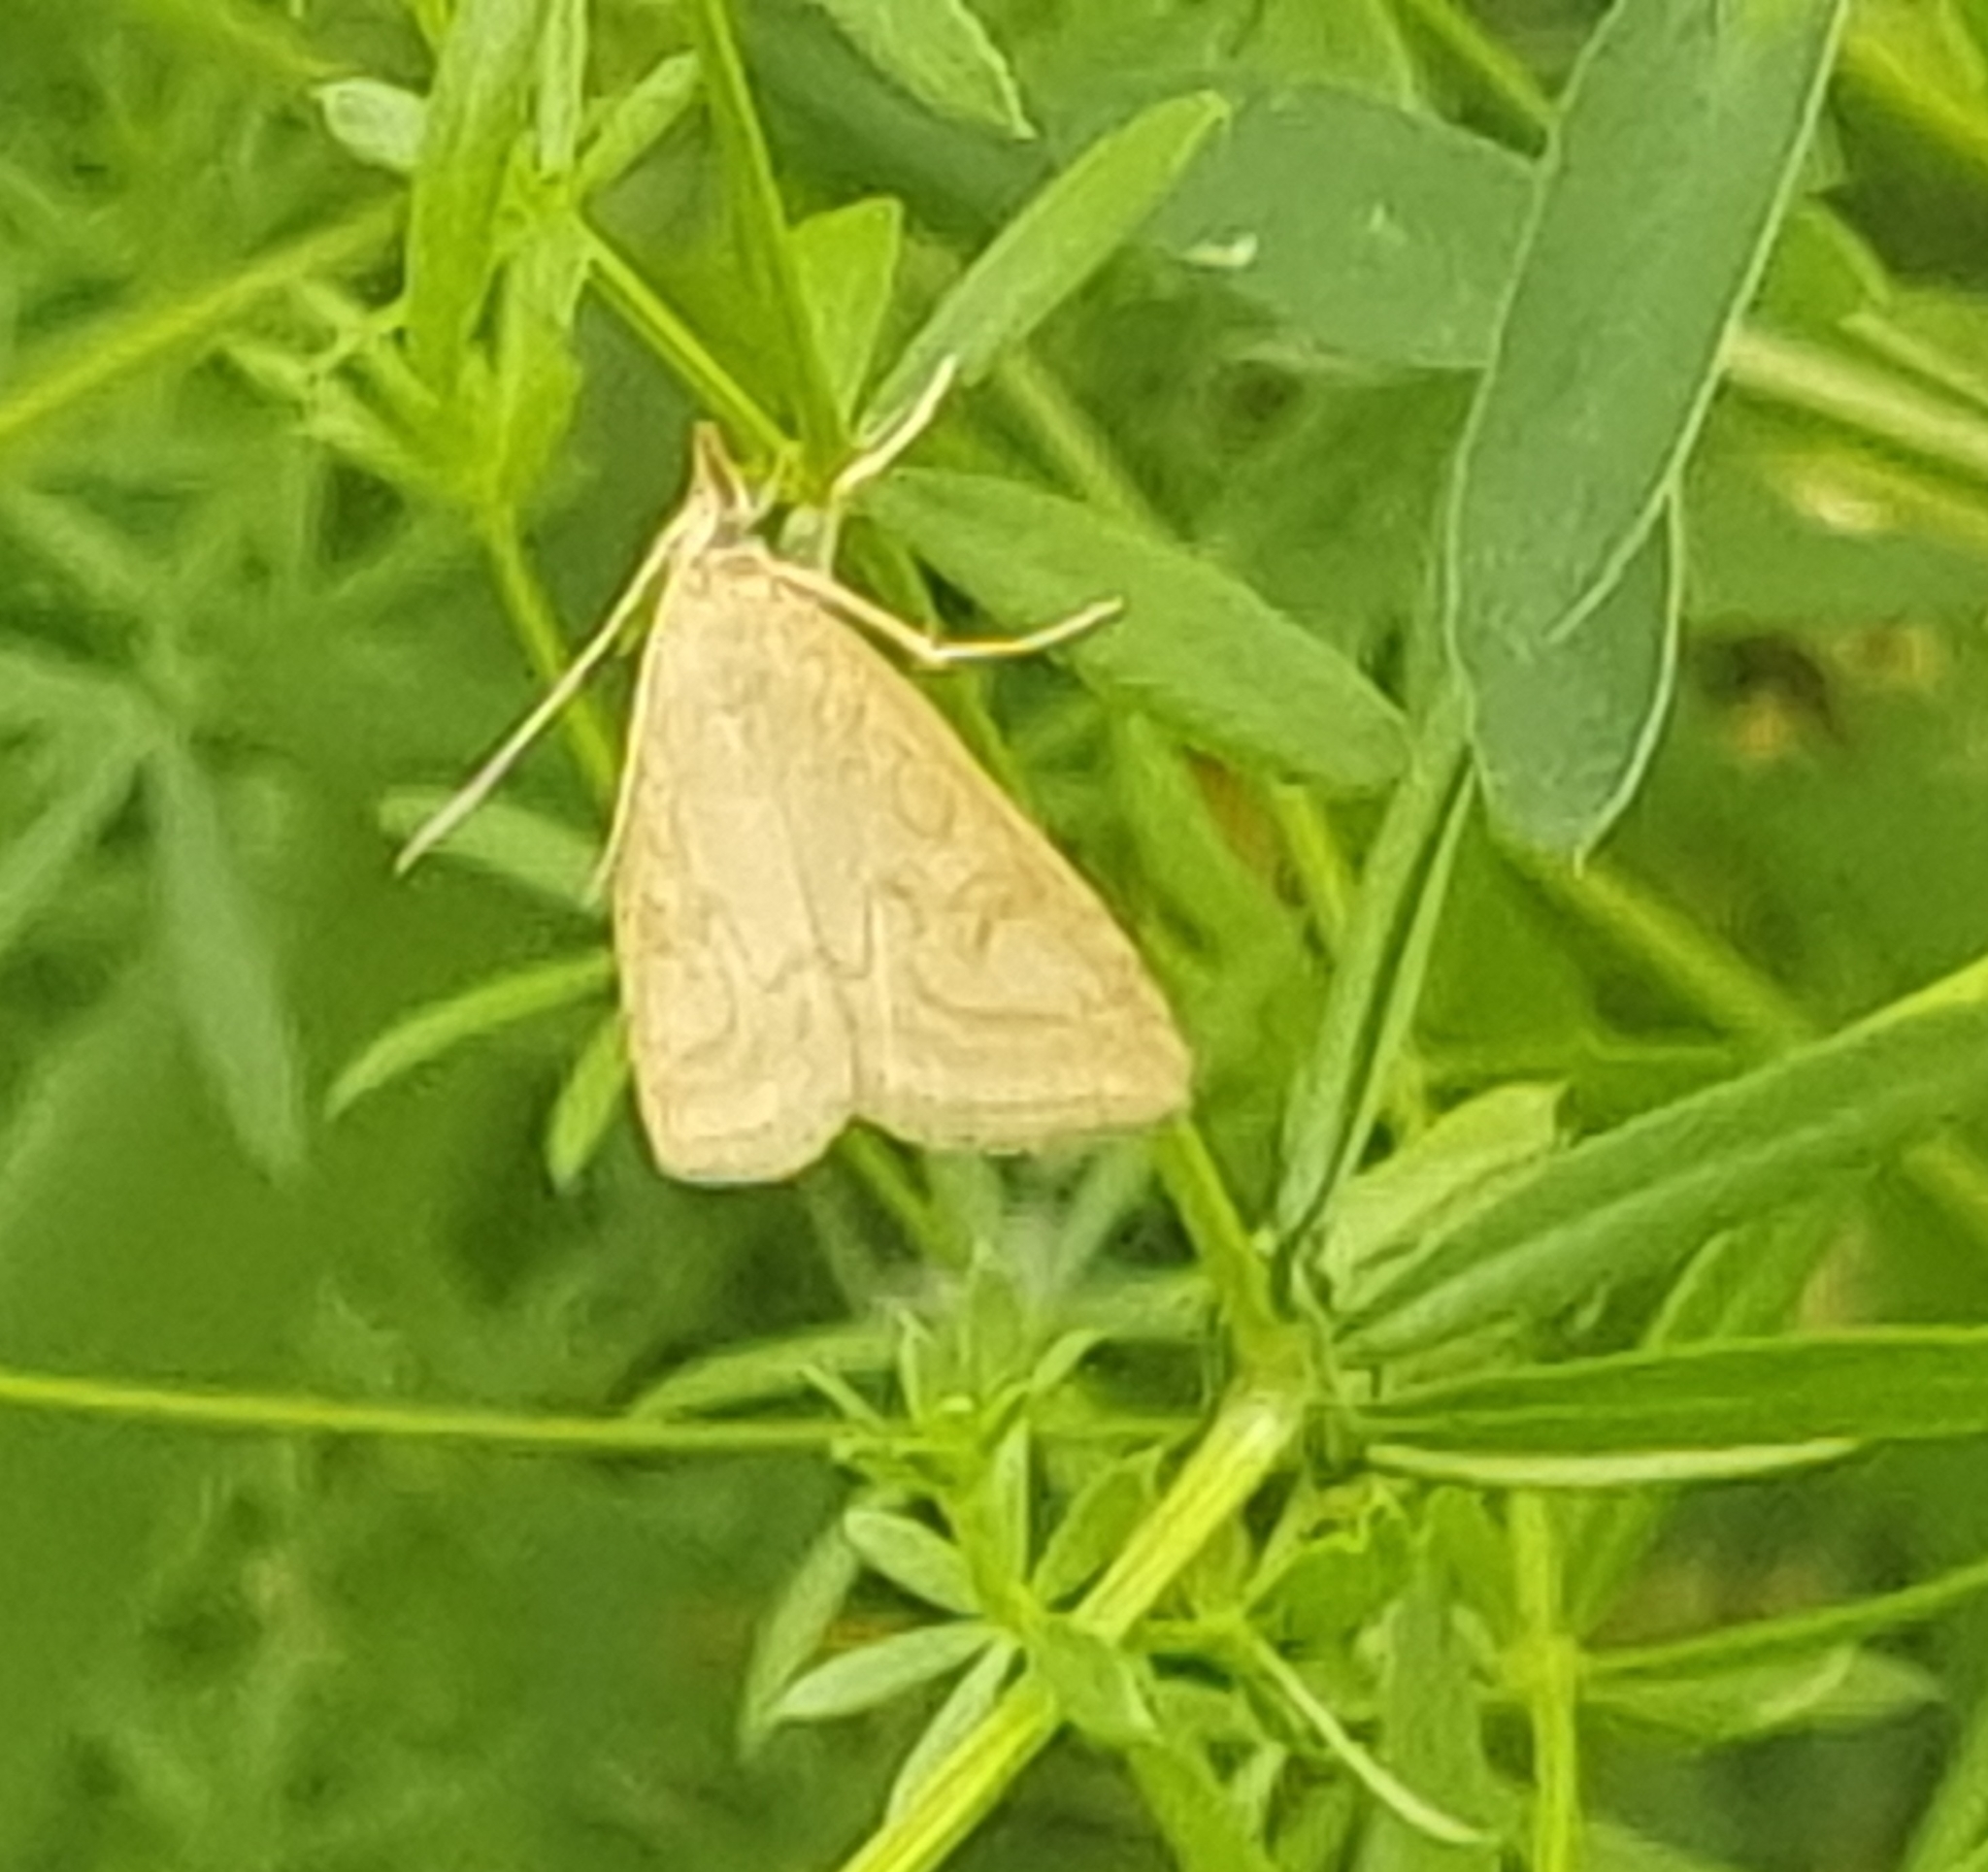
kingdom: Animalia
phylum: Arthropoda
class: Insecta
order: Lepidoptera
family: Crambidae
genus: Udea
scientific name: Udea lutealis
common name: Pale straw pearl
